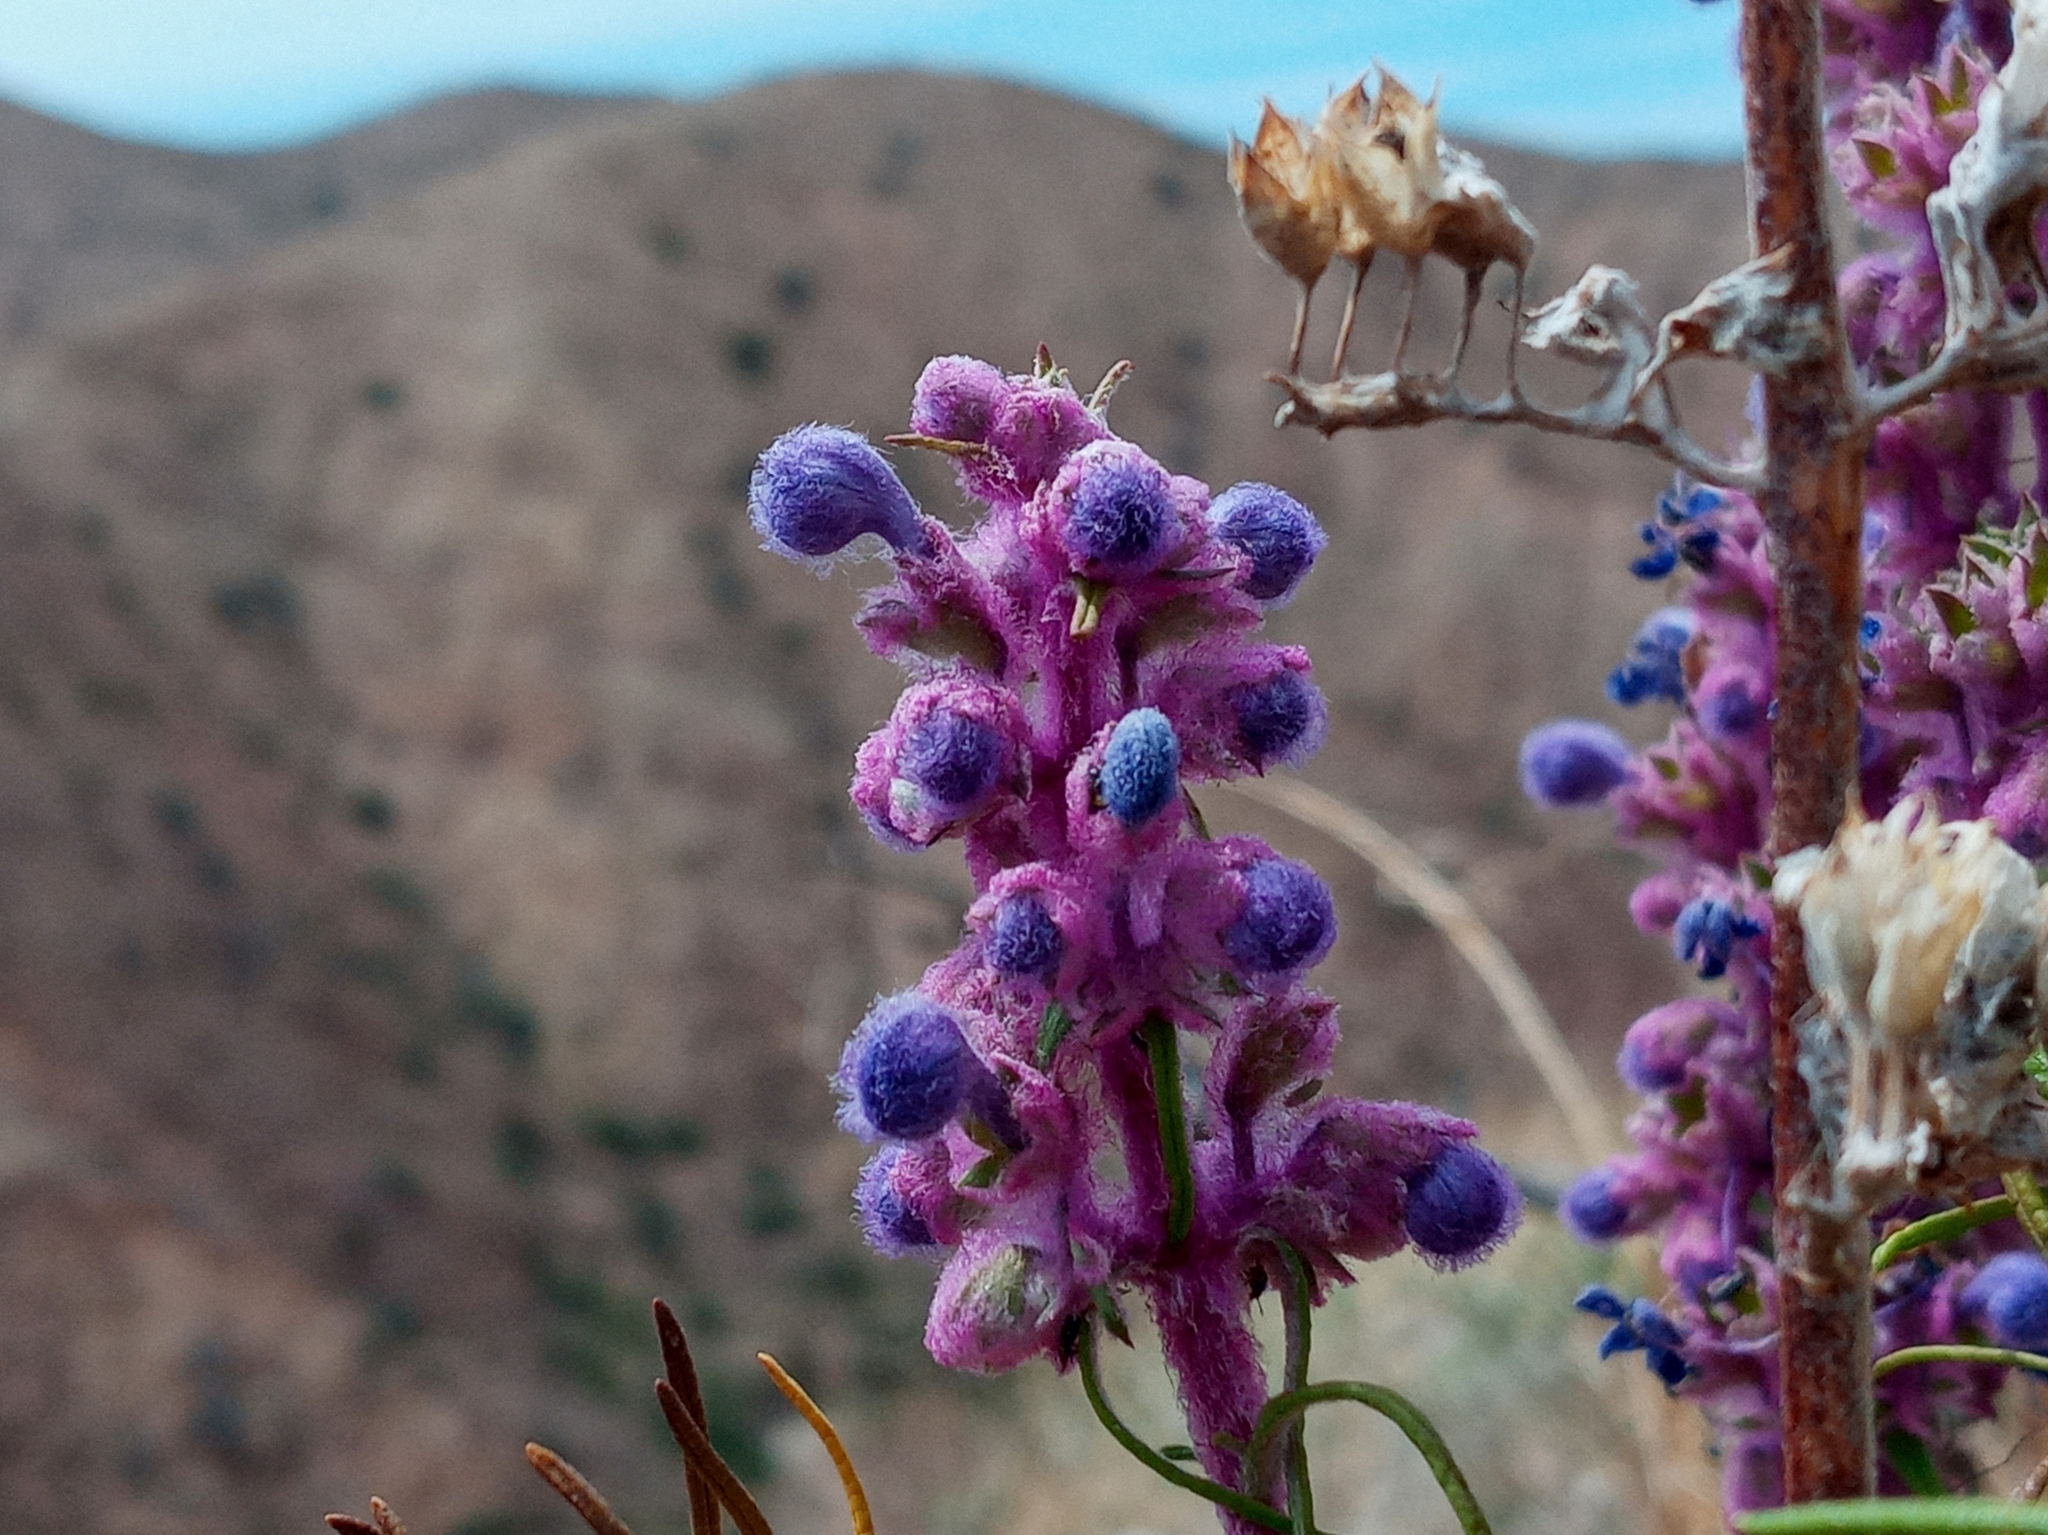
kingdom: Plantae
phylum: Tracheophyta
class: Magnoliopsida
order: Lamiales
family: Lamiaceae
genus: Trichostema
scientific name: Trichostema lanatum
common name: Woolly bluecurls
